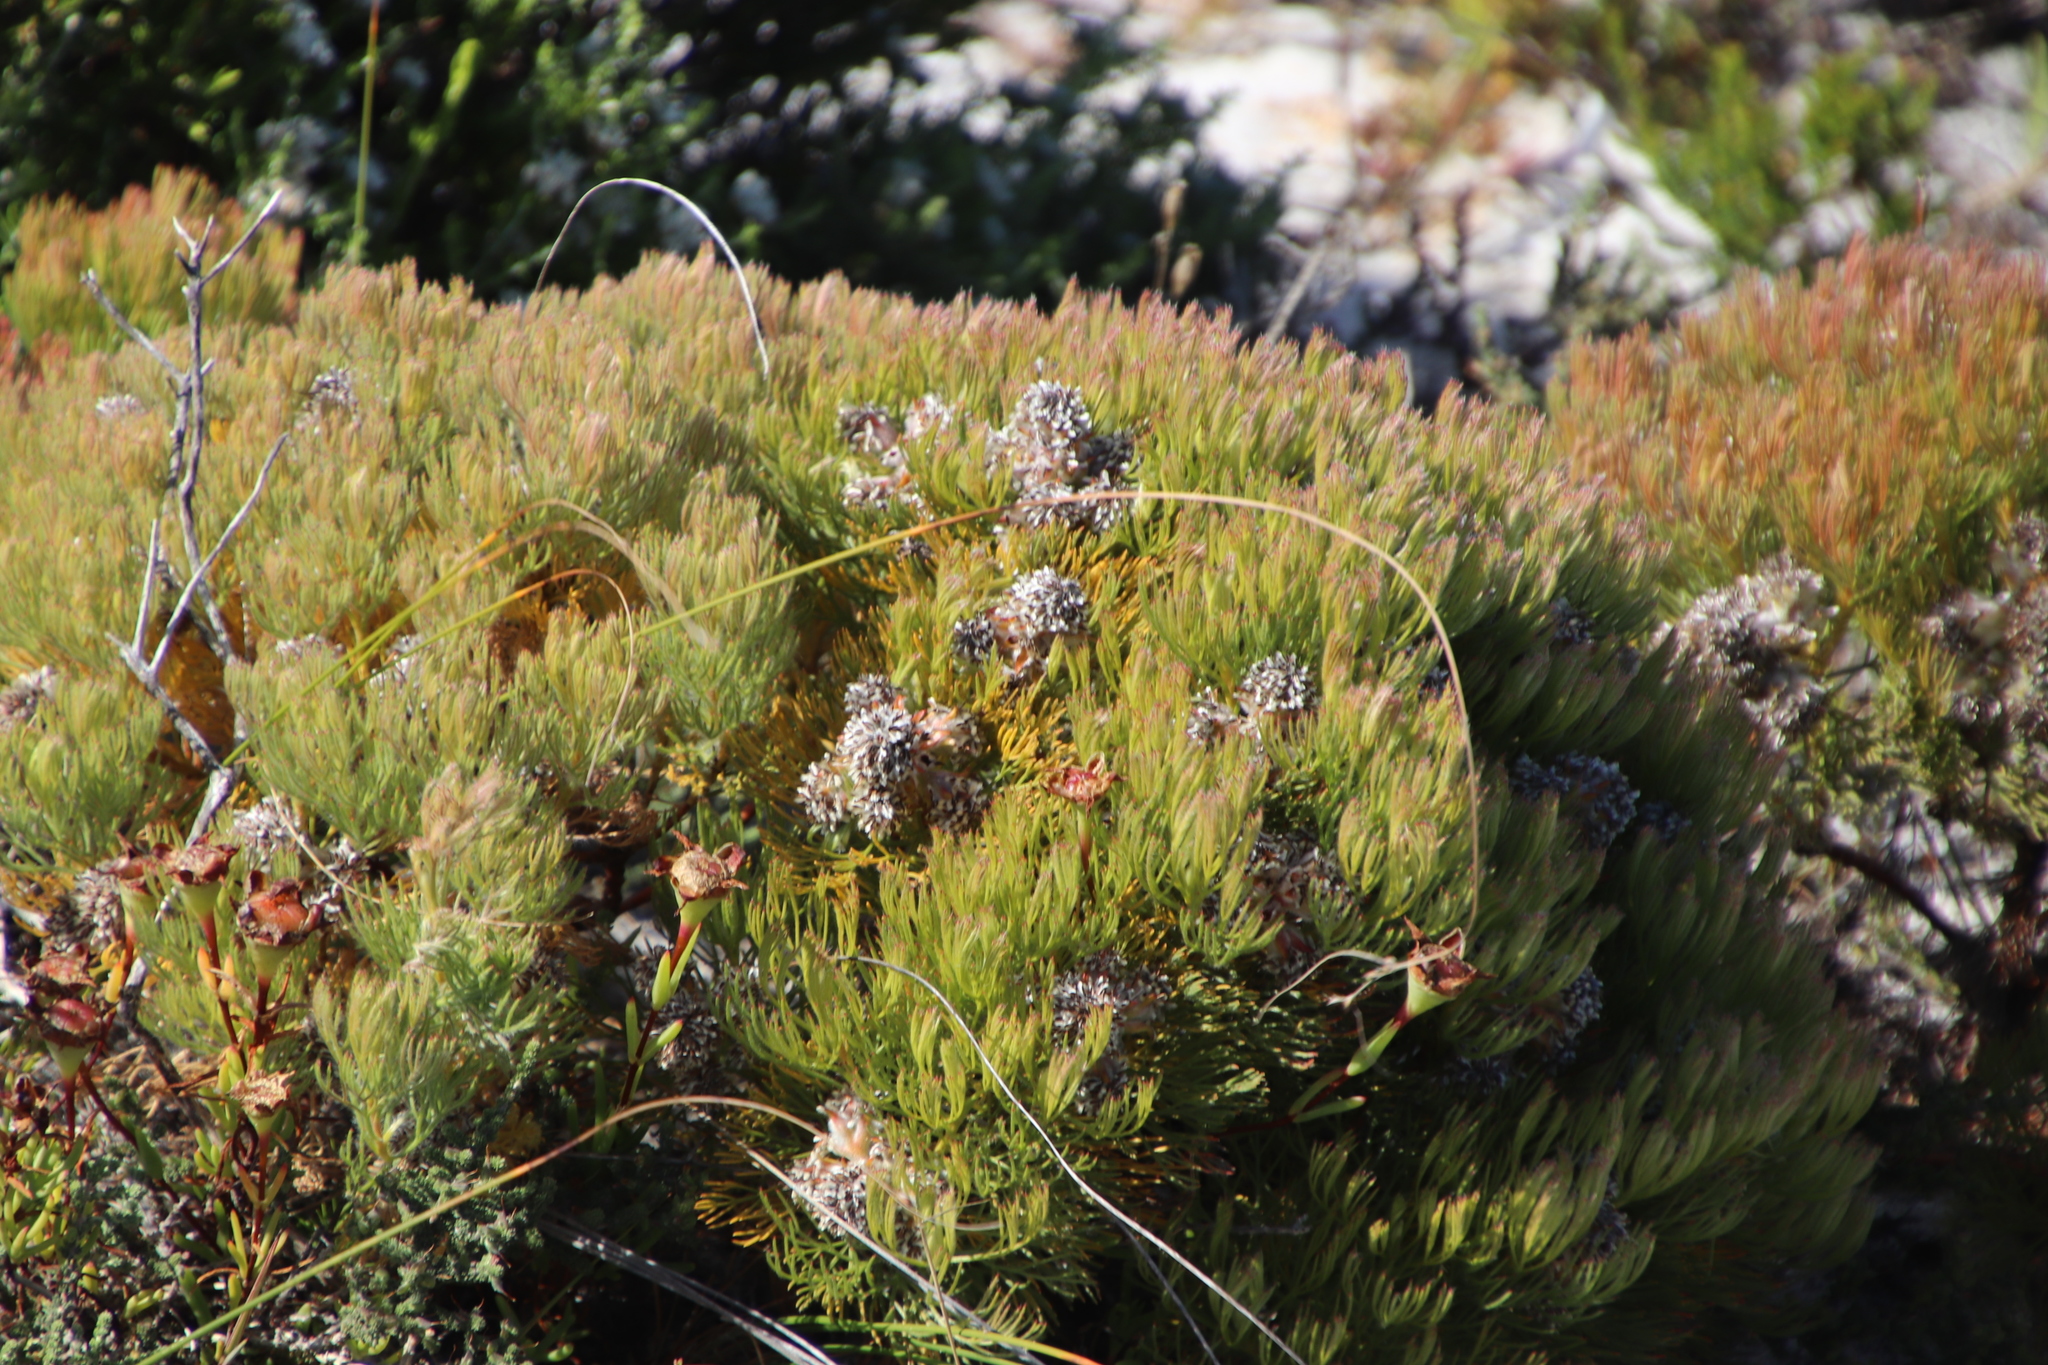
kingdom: Plantae
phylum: Tracheophyta
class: Magnoliopsida
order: Proteales
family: Proteaceae
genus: Serruria
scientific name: Serruria glomerata
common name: Cluster spiderhead
